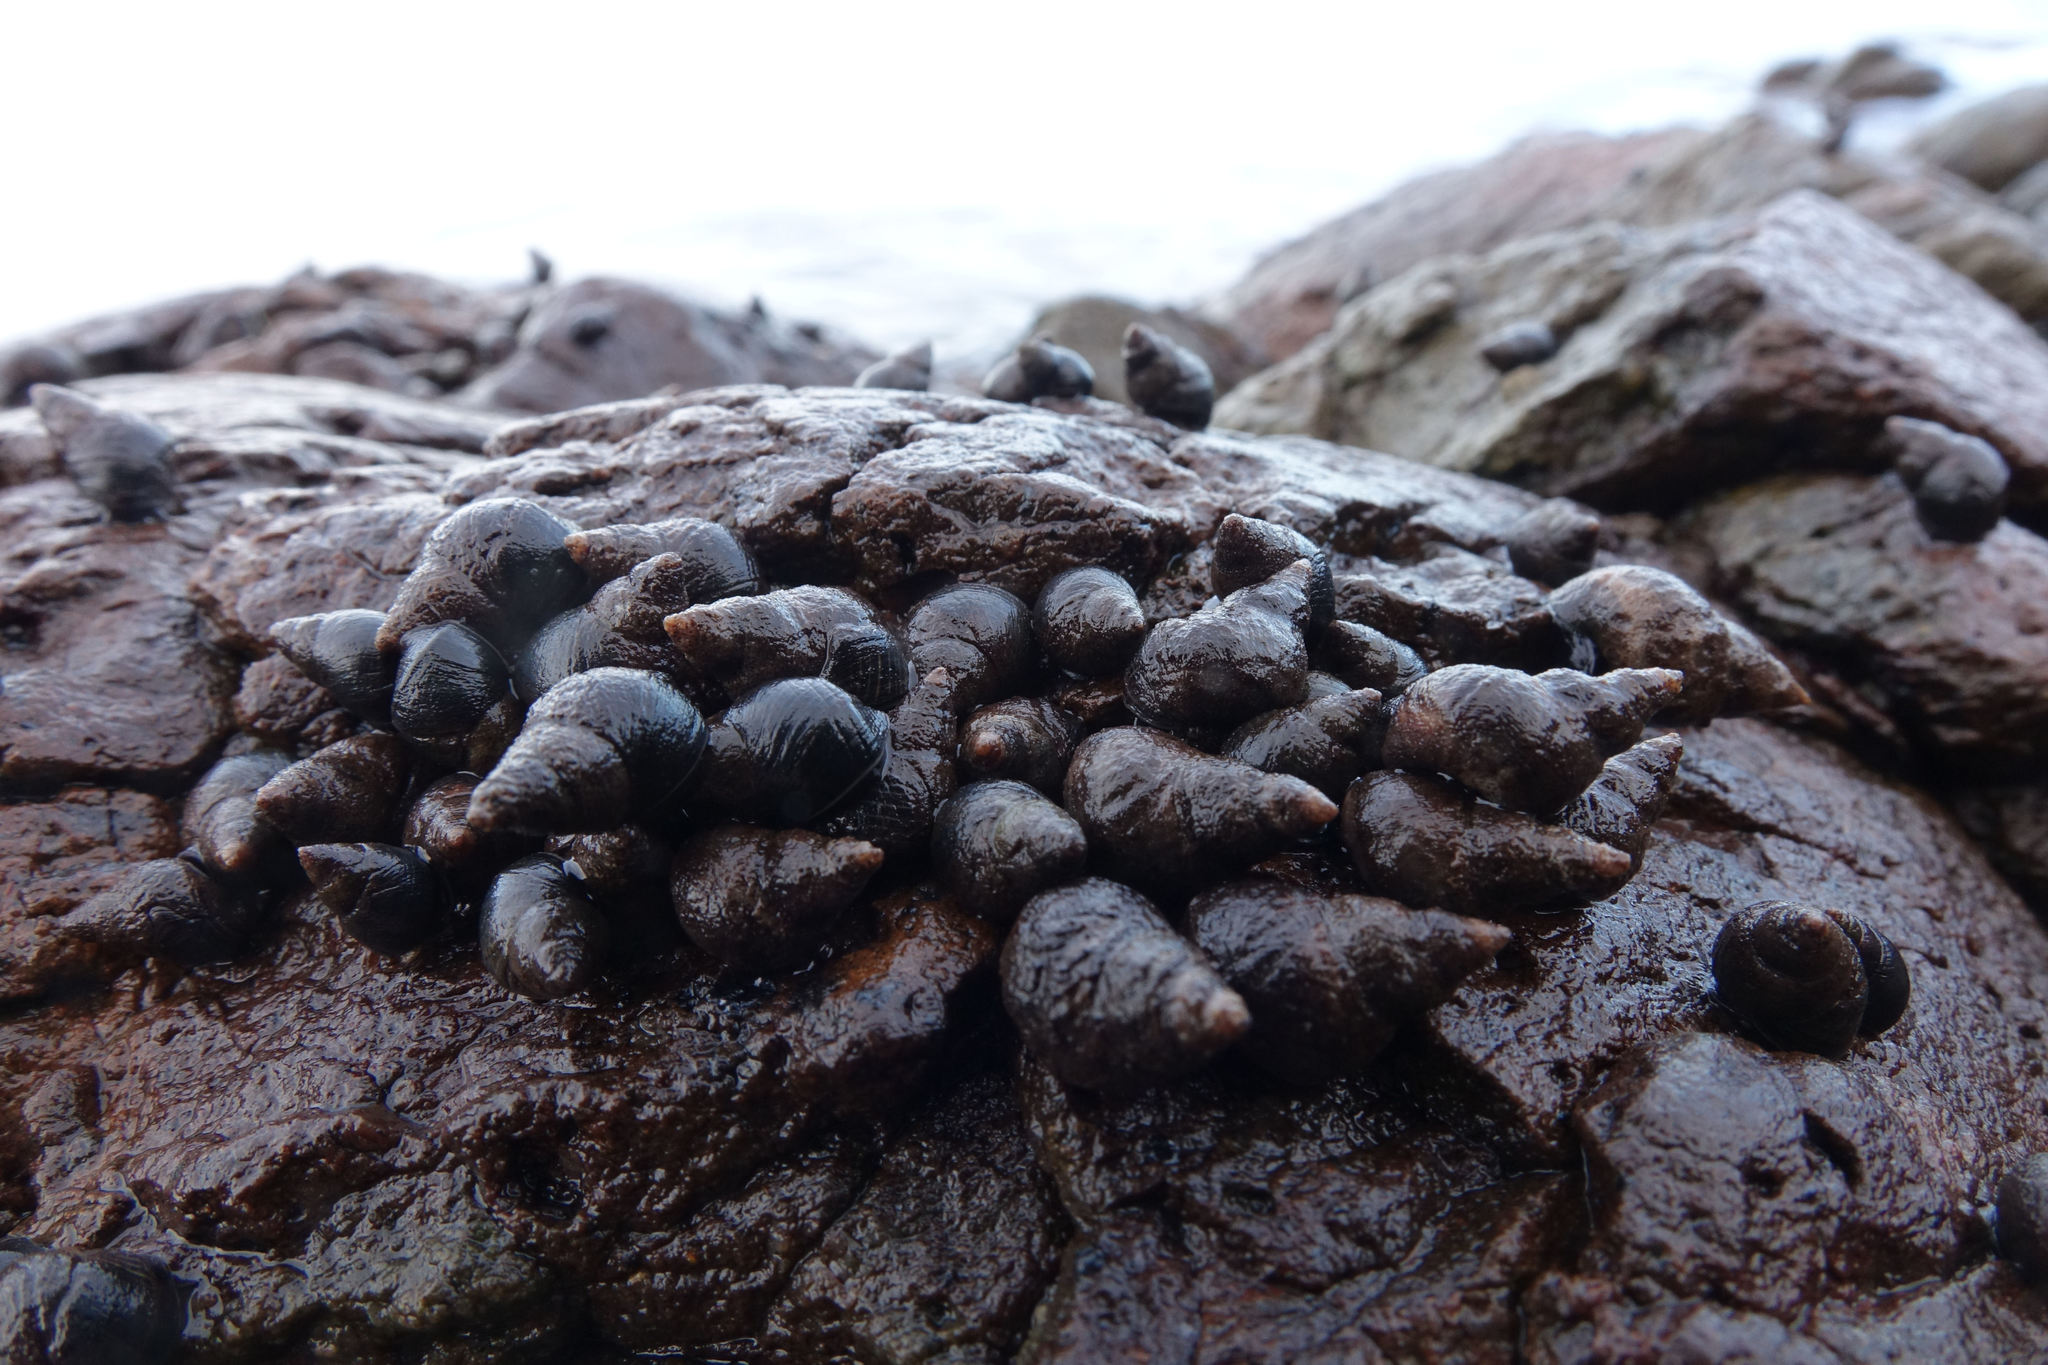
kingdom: Animalia
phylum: Mollusca
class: Gastropoda
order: Littorinimorpha
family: Littorinidae
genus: Austrolittorina
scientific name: Austrolittorina cincta
